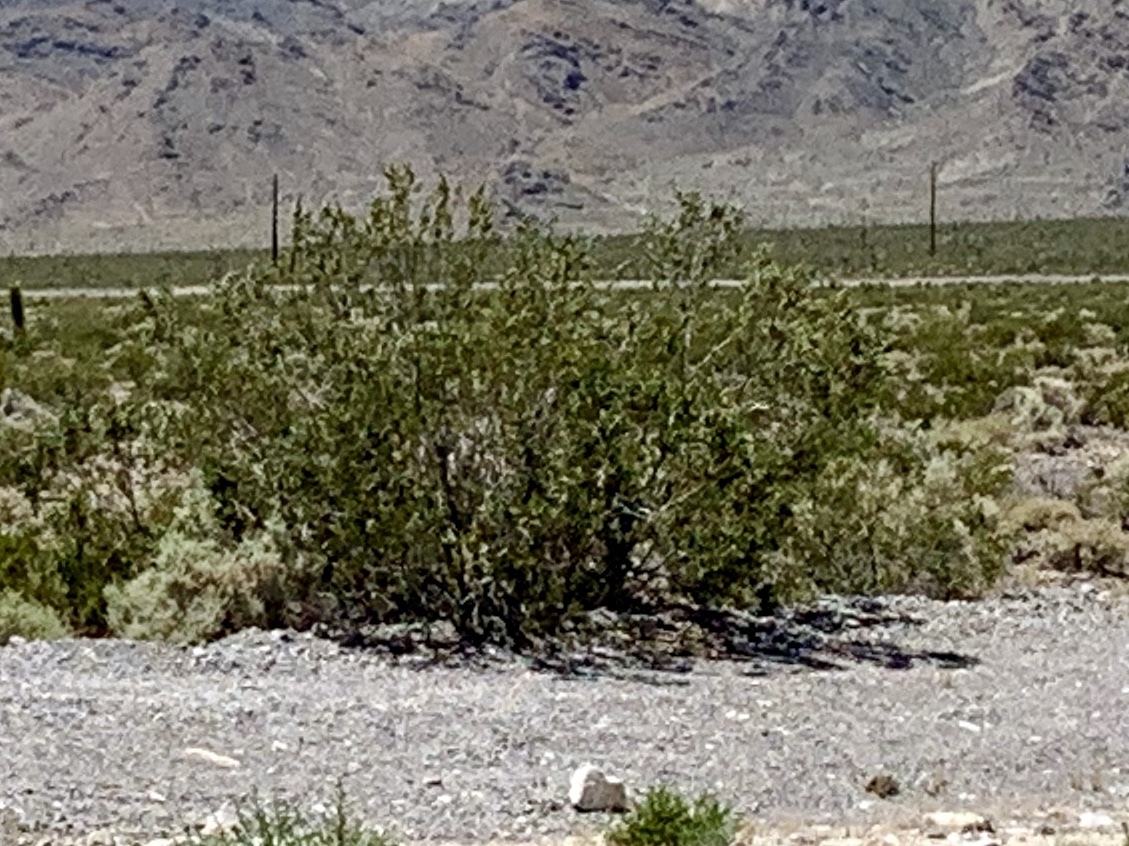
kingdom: Plantae
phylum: Tracheophyta
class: Magnoliopsida
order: Zygophyllales
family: Zygophyllaceae
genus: Larrea
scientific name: Larrea tridentata
